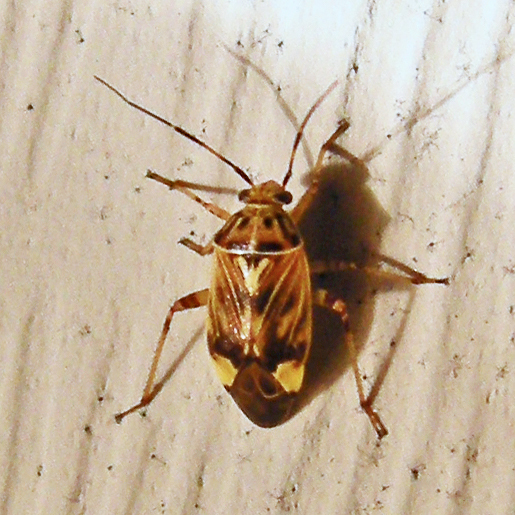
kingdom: Animalia
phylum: Arthropoda
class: Insecta
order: Hemiptera
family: Miridae
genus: Lygus
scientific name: Lygus lineolaris
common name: North american tarnished plant bug
